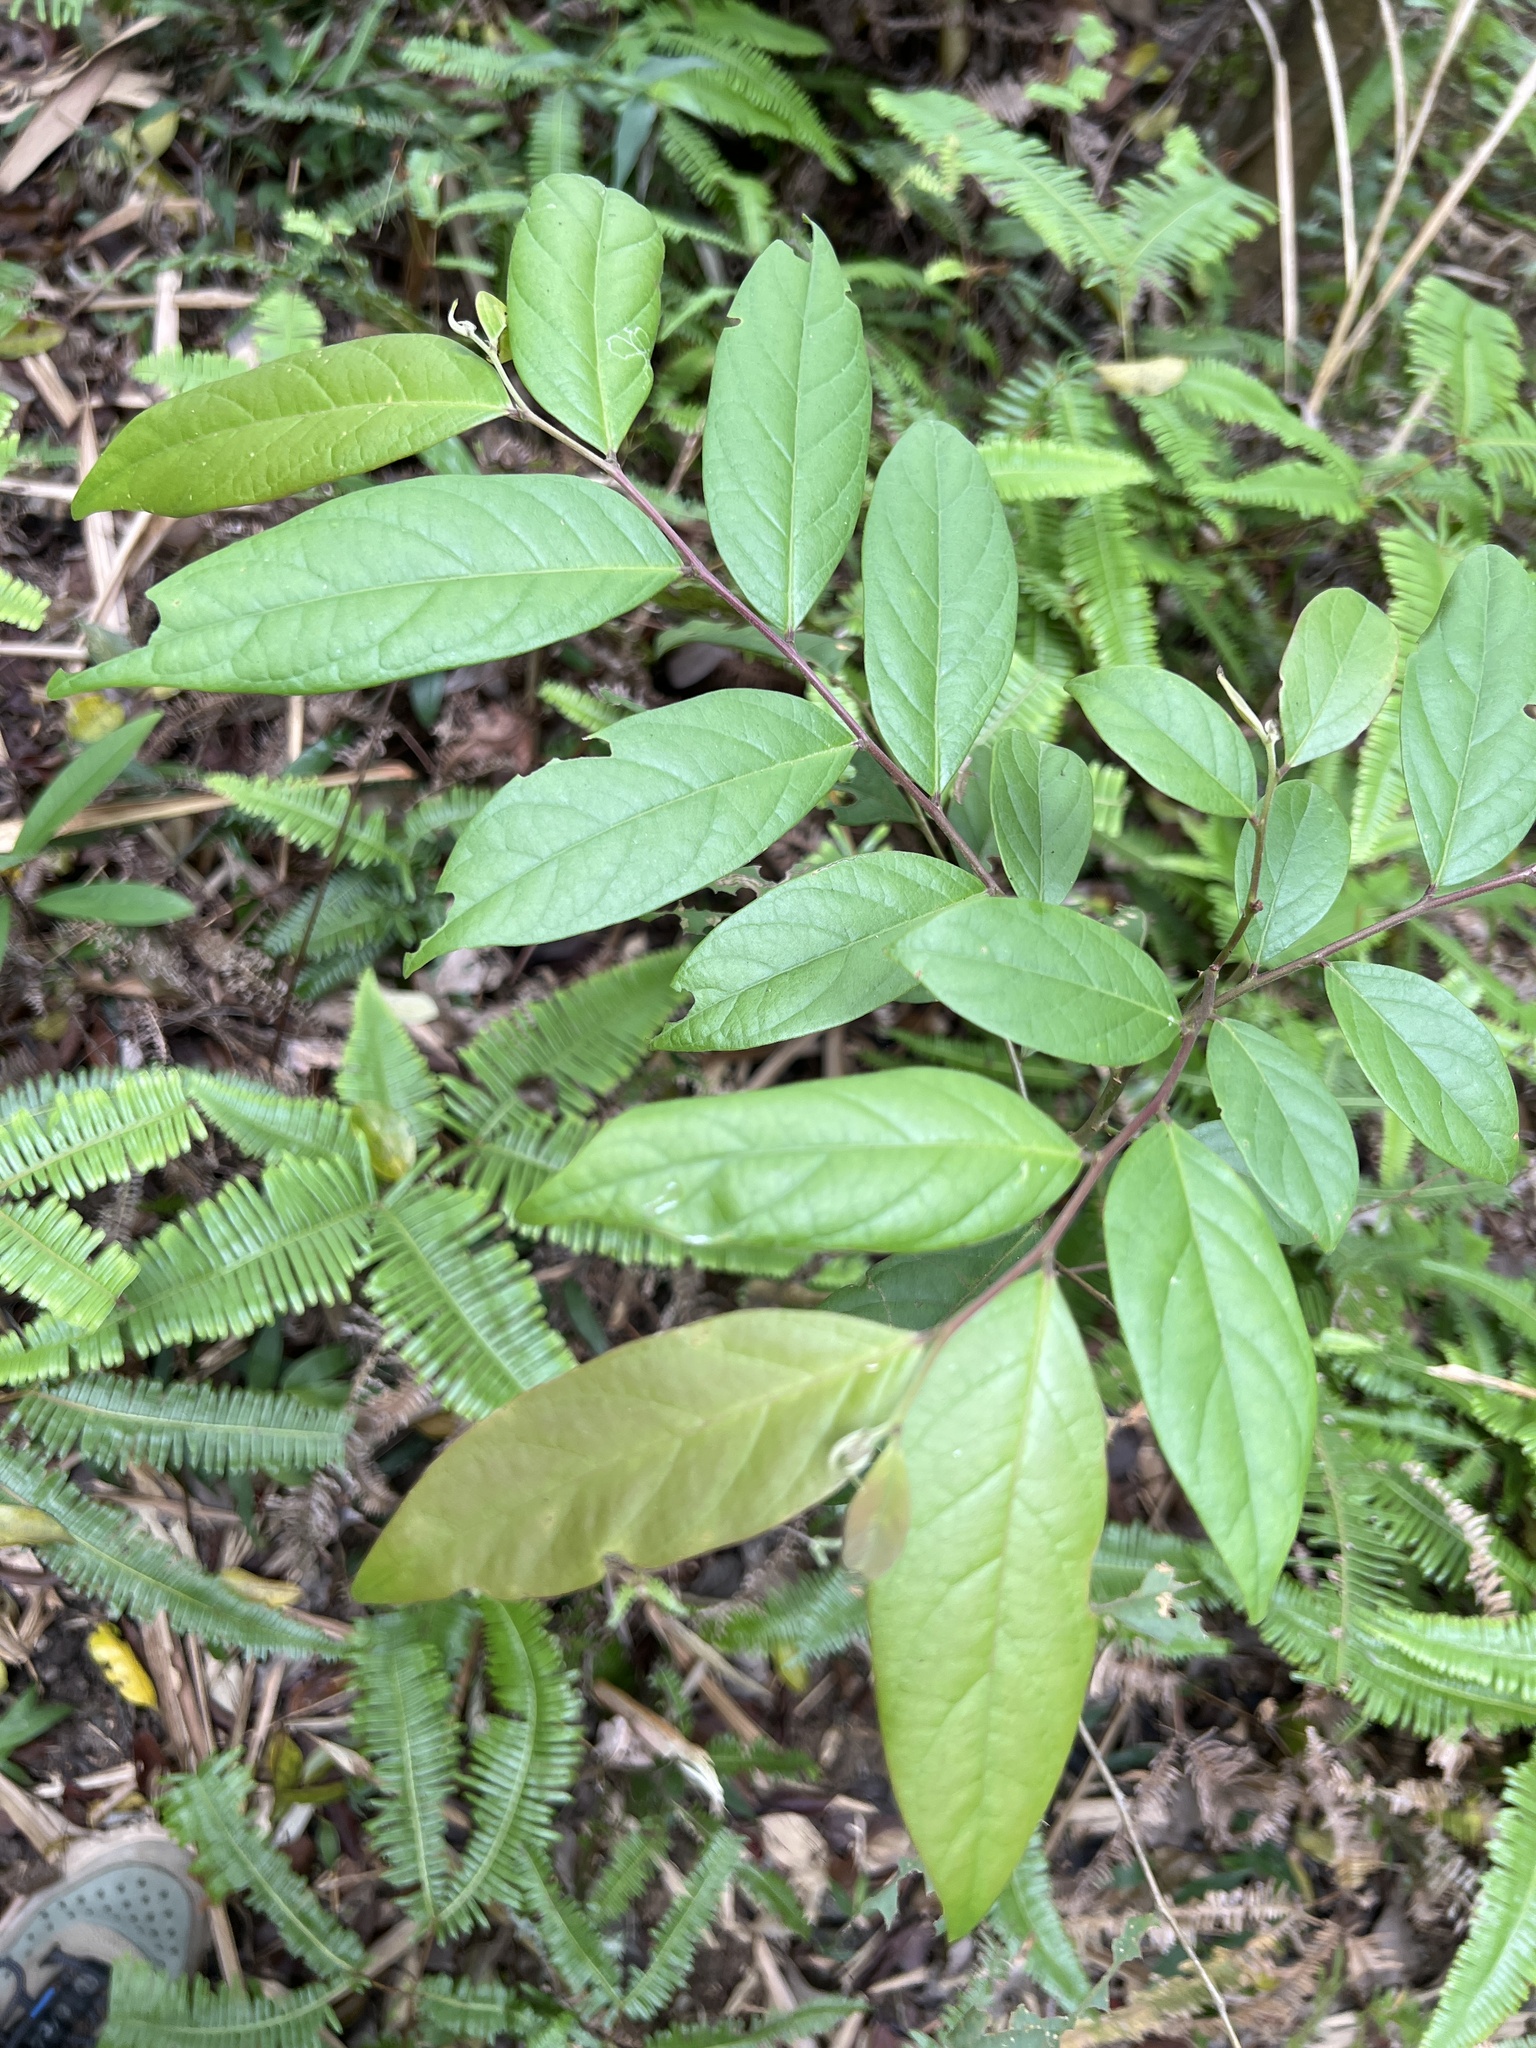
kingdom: Plantae
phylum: Tracheophyta
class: Magnoliopsida
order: Malpighiales
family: Phyllanthaceae
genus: Glochidion
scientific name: Glochidion acuminatum
